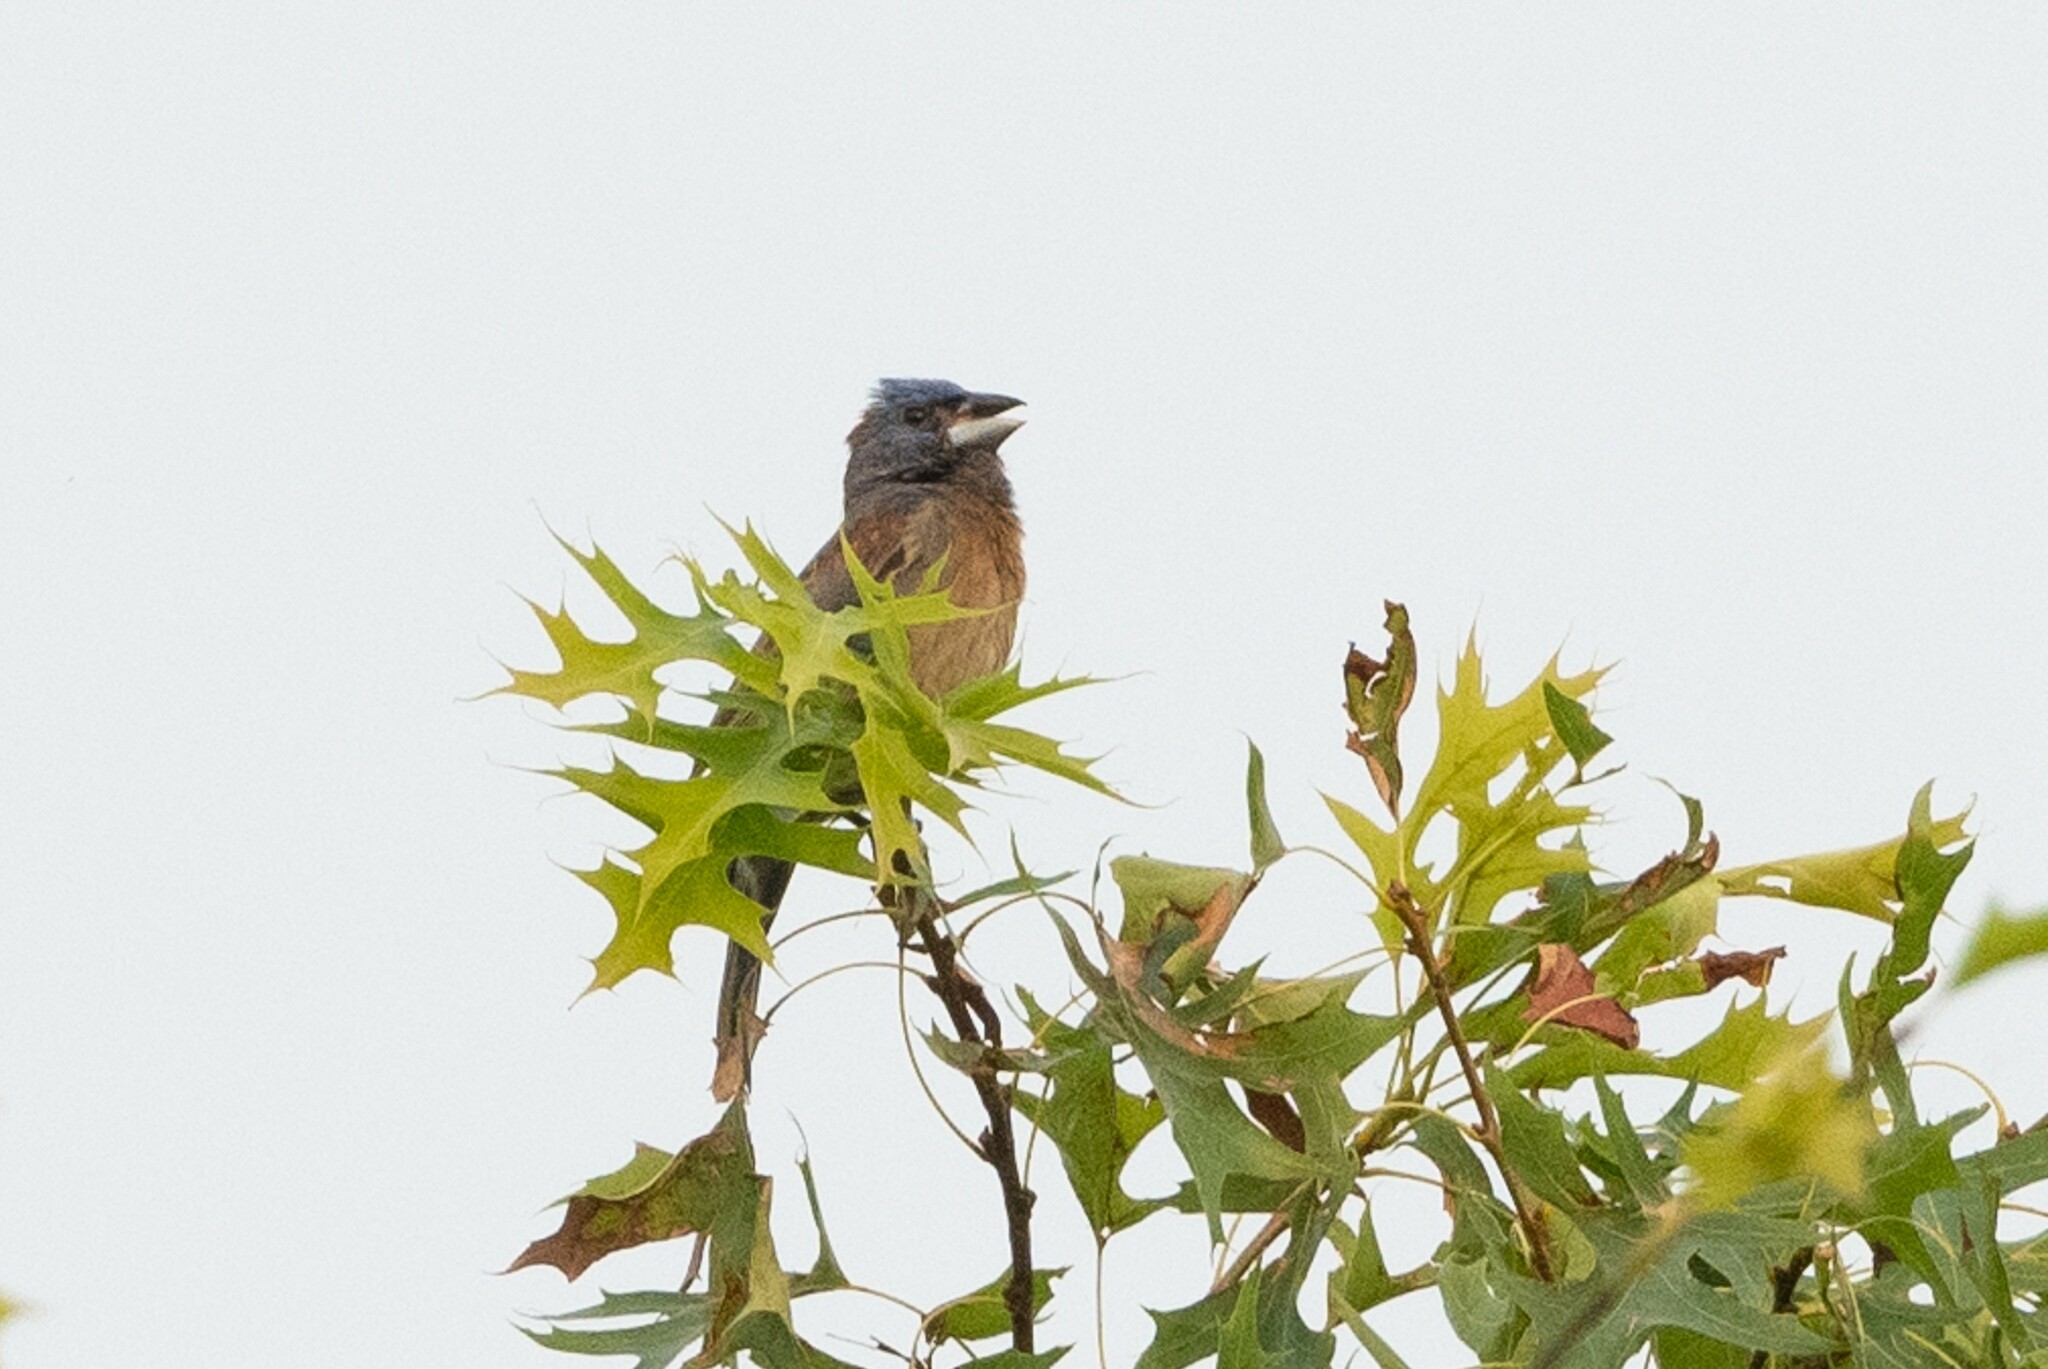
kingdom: Animalia
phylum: Chordata
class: Aves
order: Passeriformes
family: Cardinalidae
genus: Passerina
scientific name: Passerina caerulea
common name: Blue grosbeak
